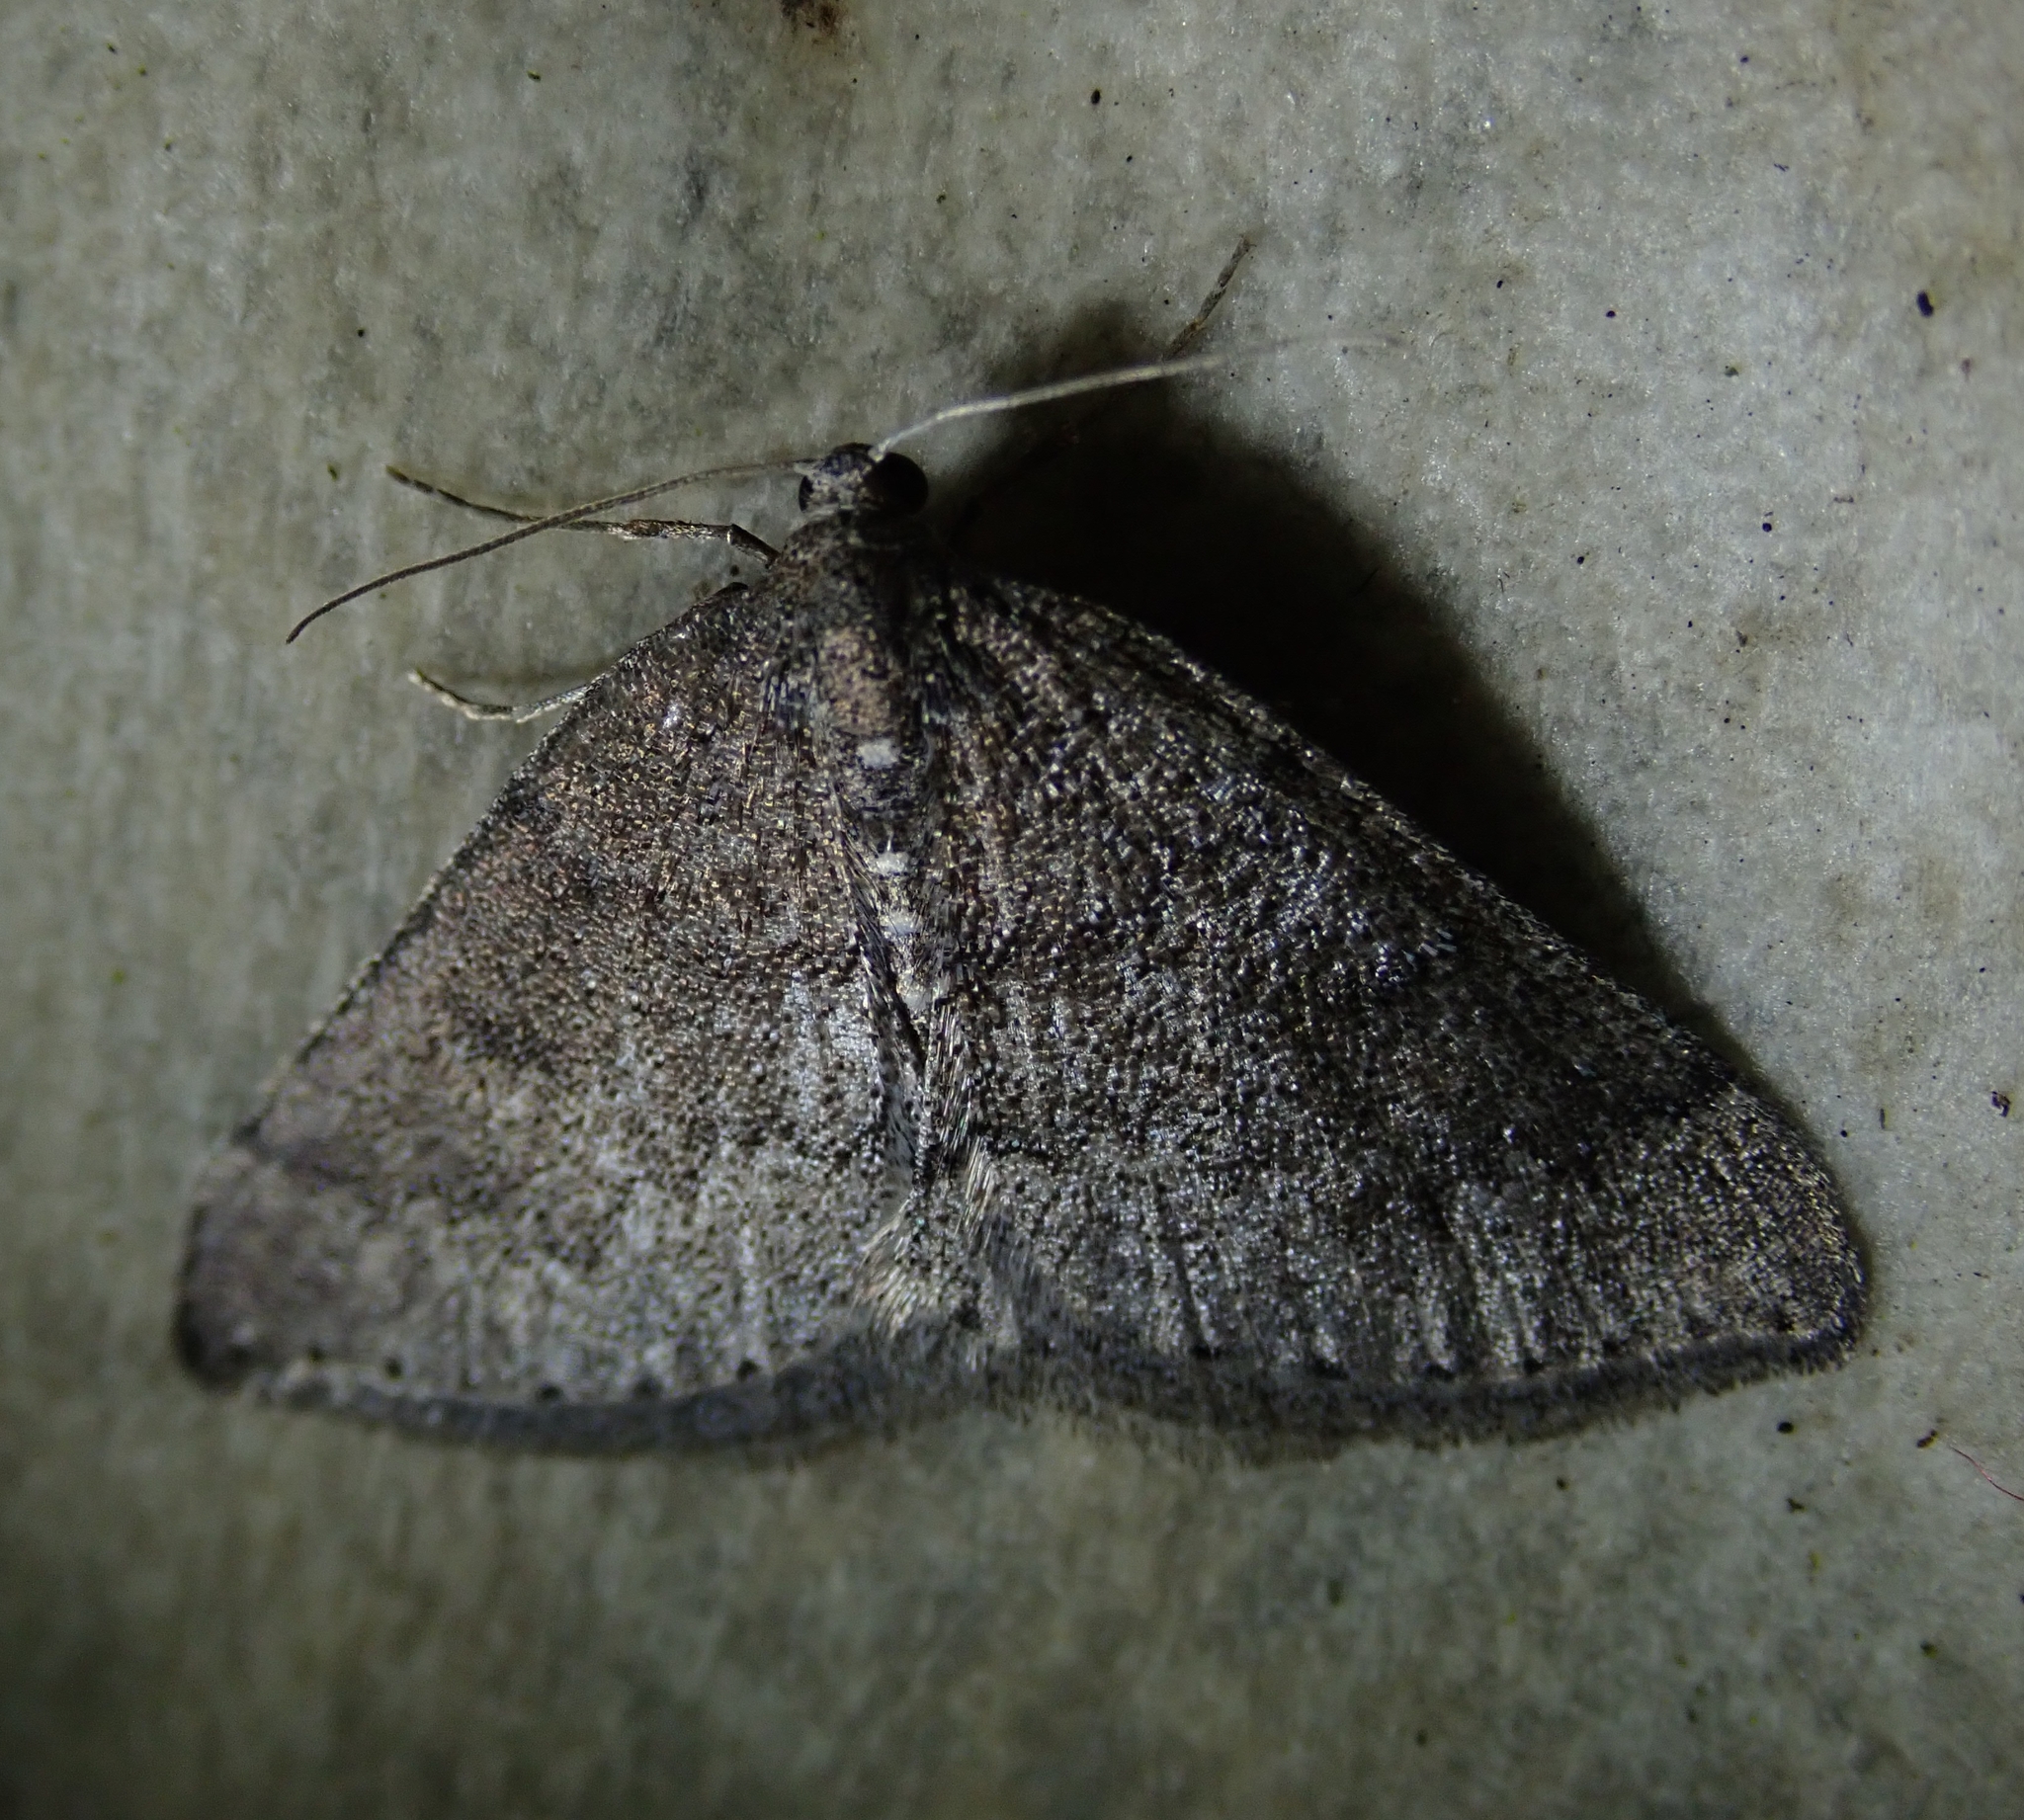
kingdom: Animalia
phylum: Arthropoda
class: Insecta
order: Lepidoptera
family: Geometridae
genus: Aleucis
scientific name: Aleucis distinctata
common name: Sloe carpet
